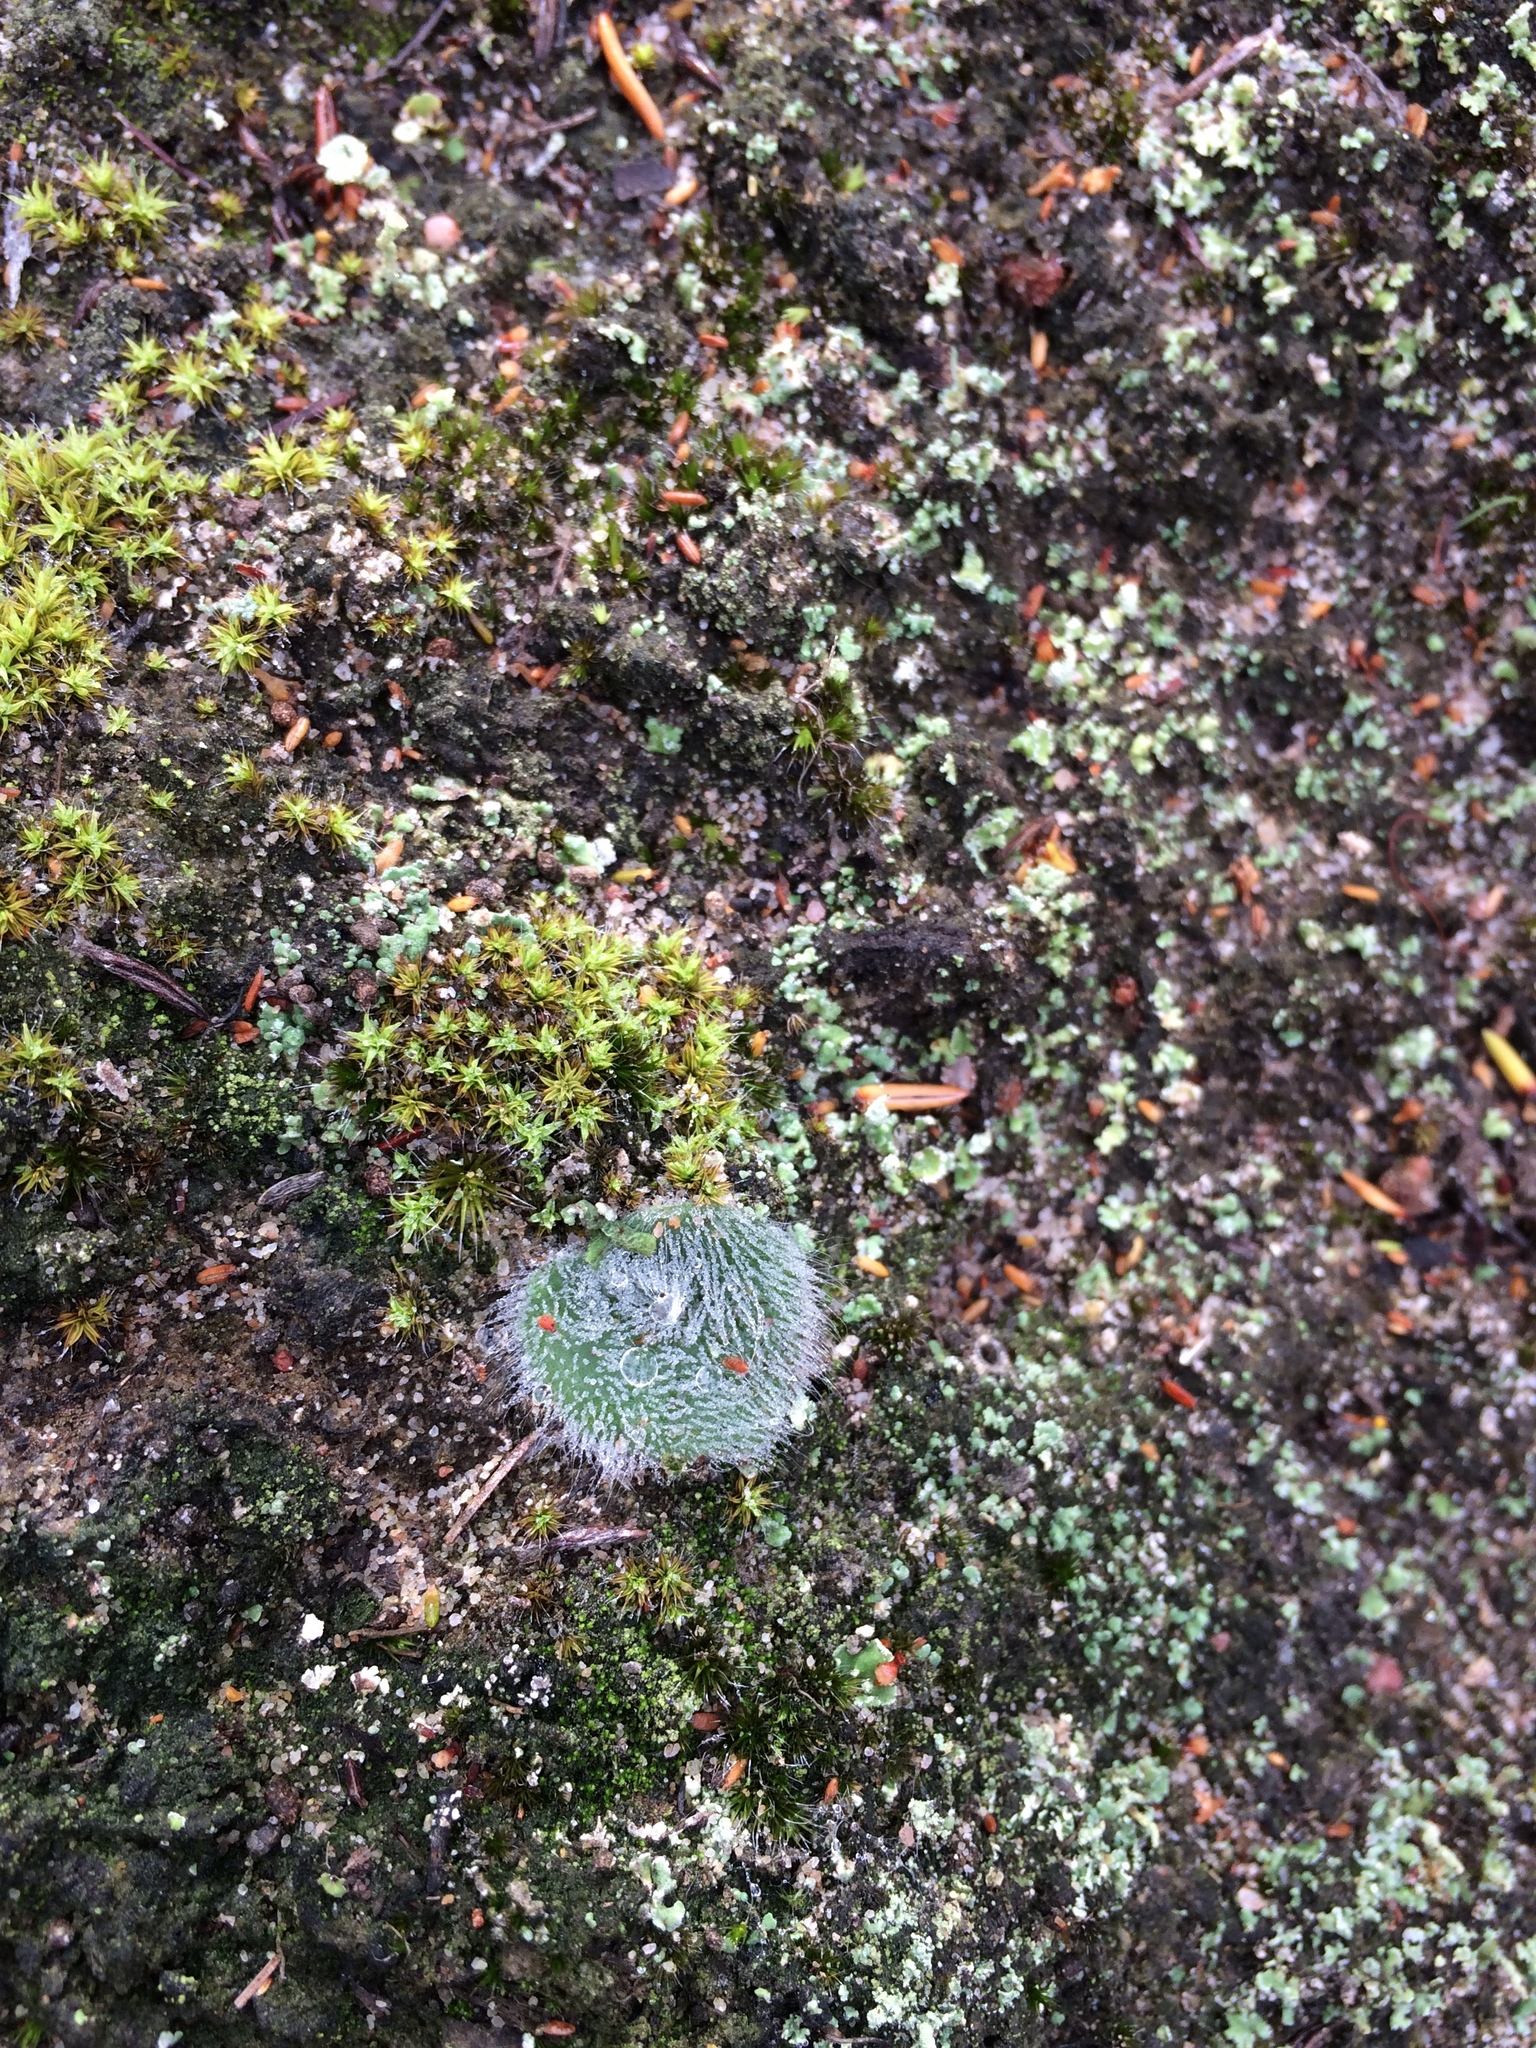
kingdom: Plantae
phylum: Tracheophyta
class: Liliopsida
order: Asparagales
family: Orchidaceae
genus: Holothrix
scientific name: Holothrix villosa
